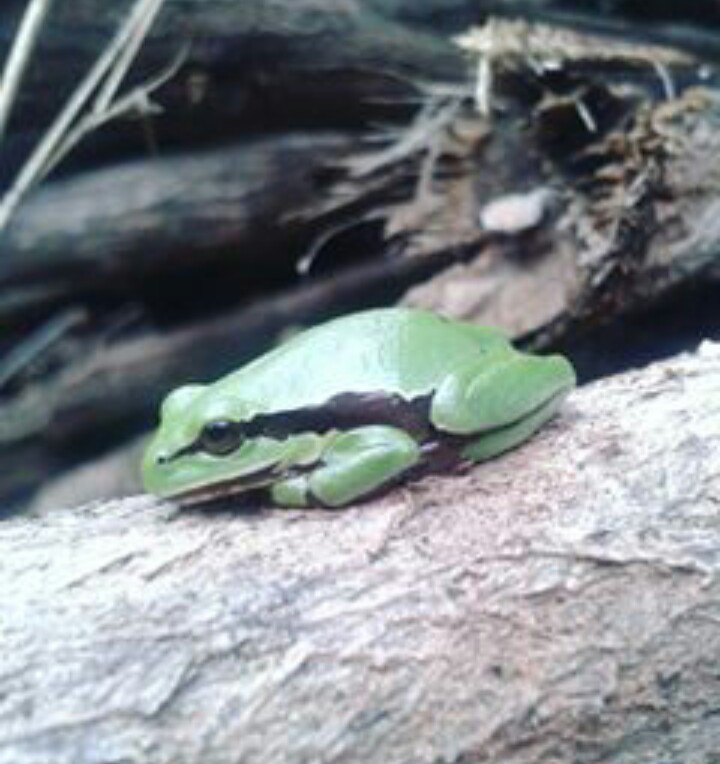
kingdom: Animalia
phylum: Chordata
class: Amphibia
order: Anura
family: Hylidae
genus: Dryophytes
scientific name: Dryophytes euphorbiaceus
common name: Southern highland treefrog
